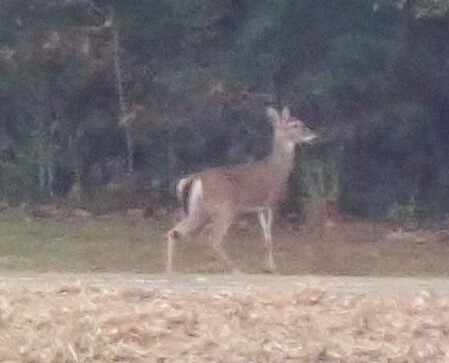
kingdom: Animalia
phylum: Chordata
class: Mammalia
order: Artiodactyla
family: Cervidae
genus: Odocoileus
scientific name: Odocoileus virginianus
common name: White-tailed deer
